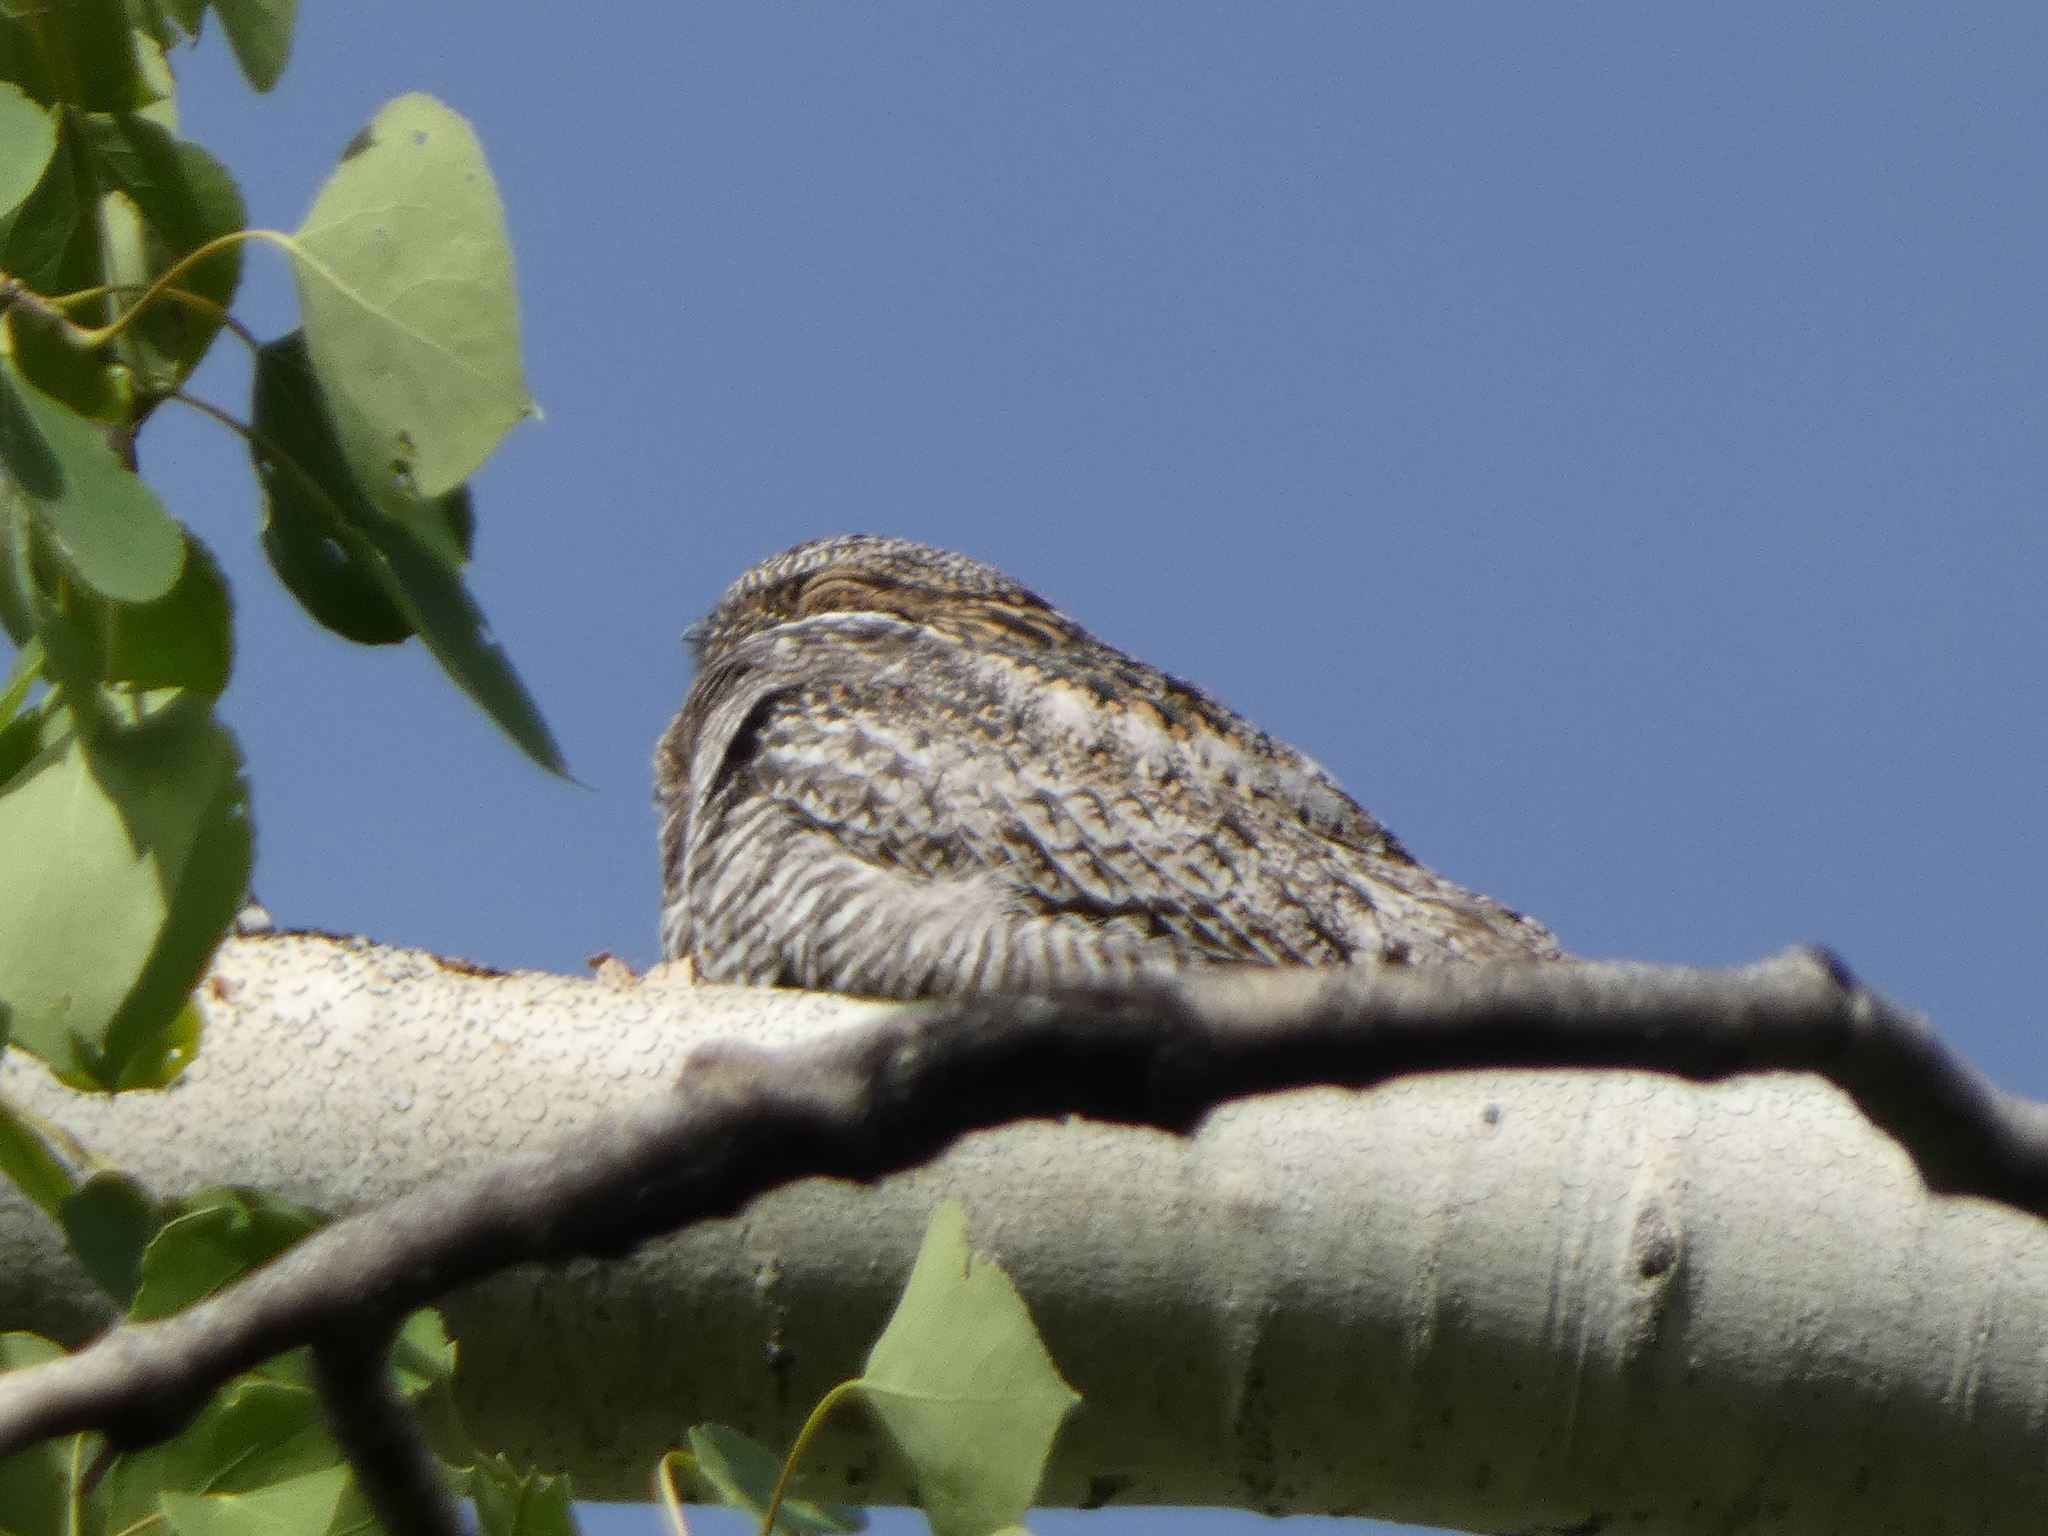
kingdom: Animalia
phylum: Chordata
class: Aves
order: Caprimulgiformes
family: Caprimulgidae
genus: Chordeiles
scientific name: Chordeiles minor
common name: Common nighthawk
